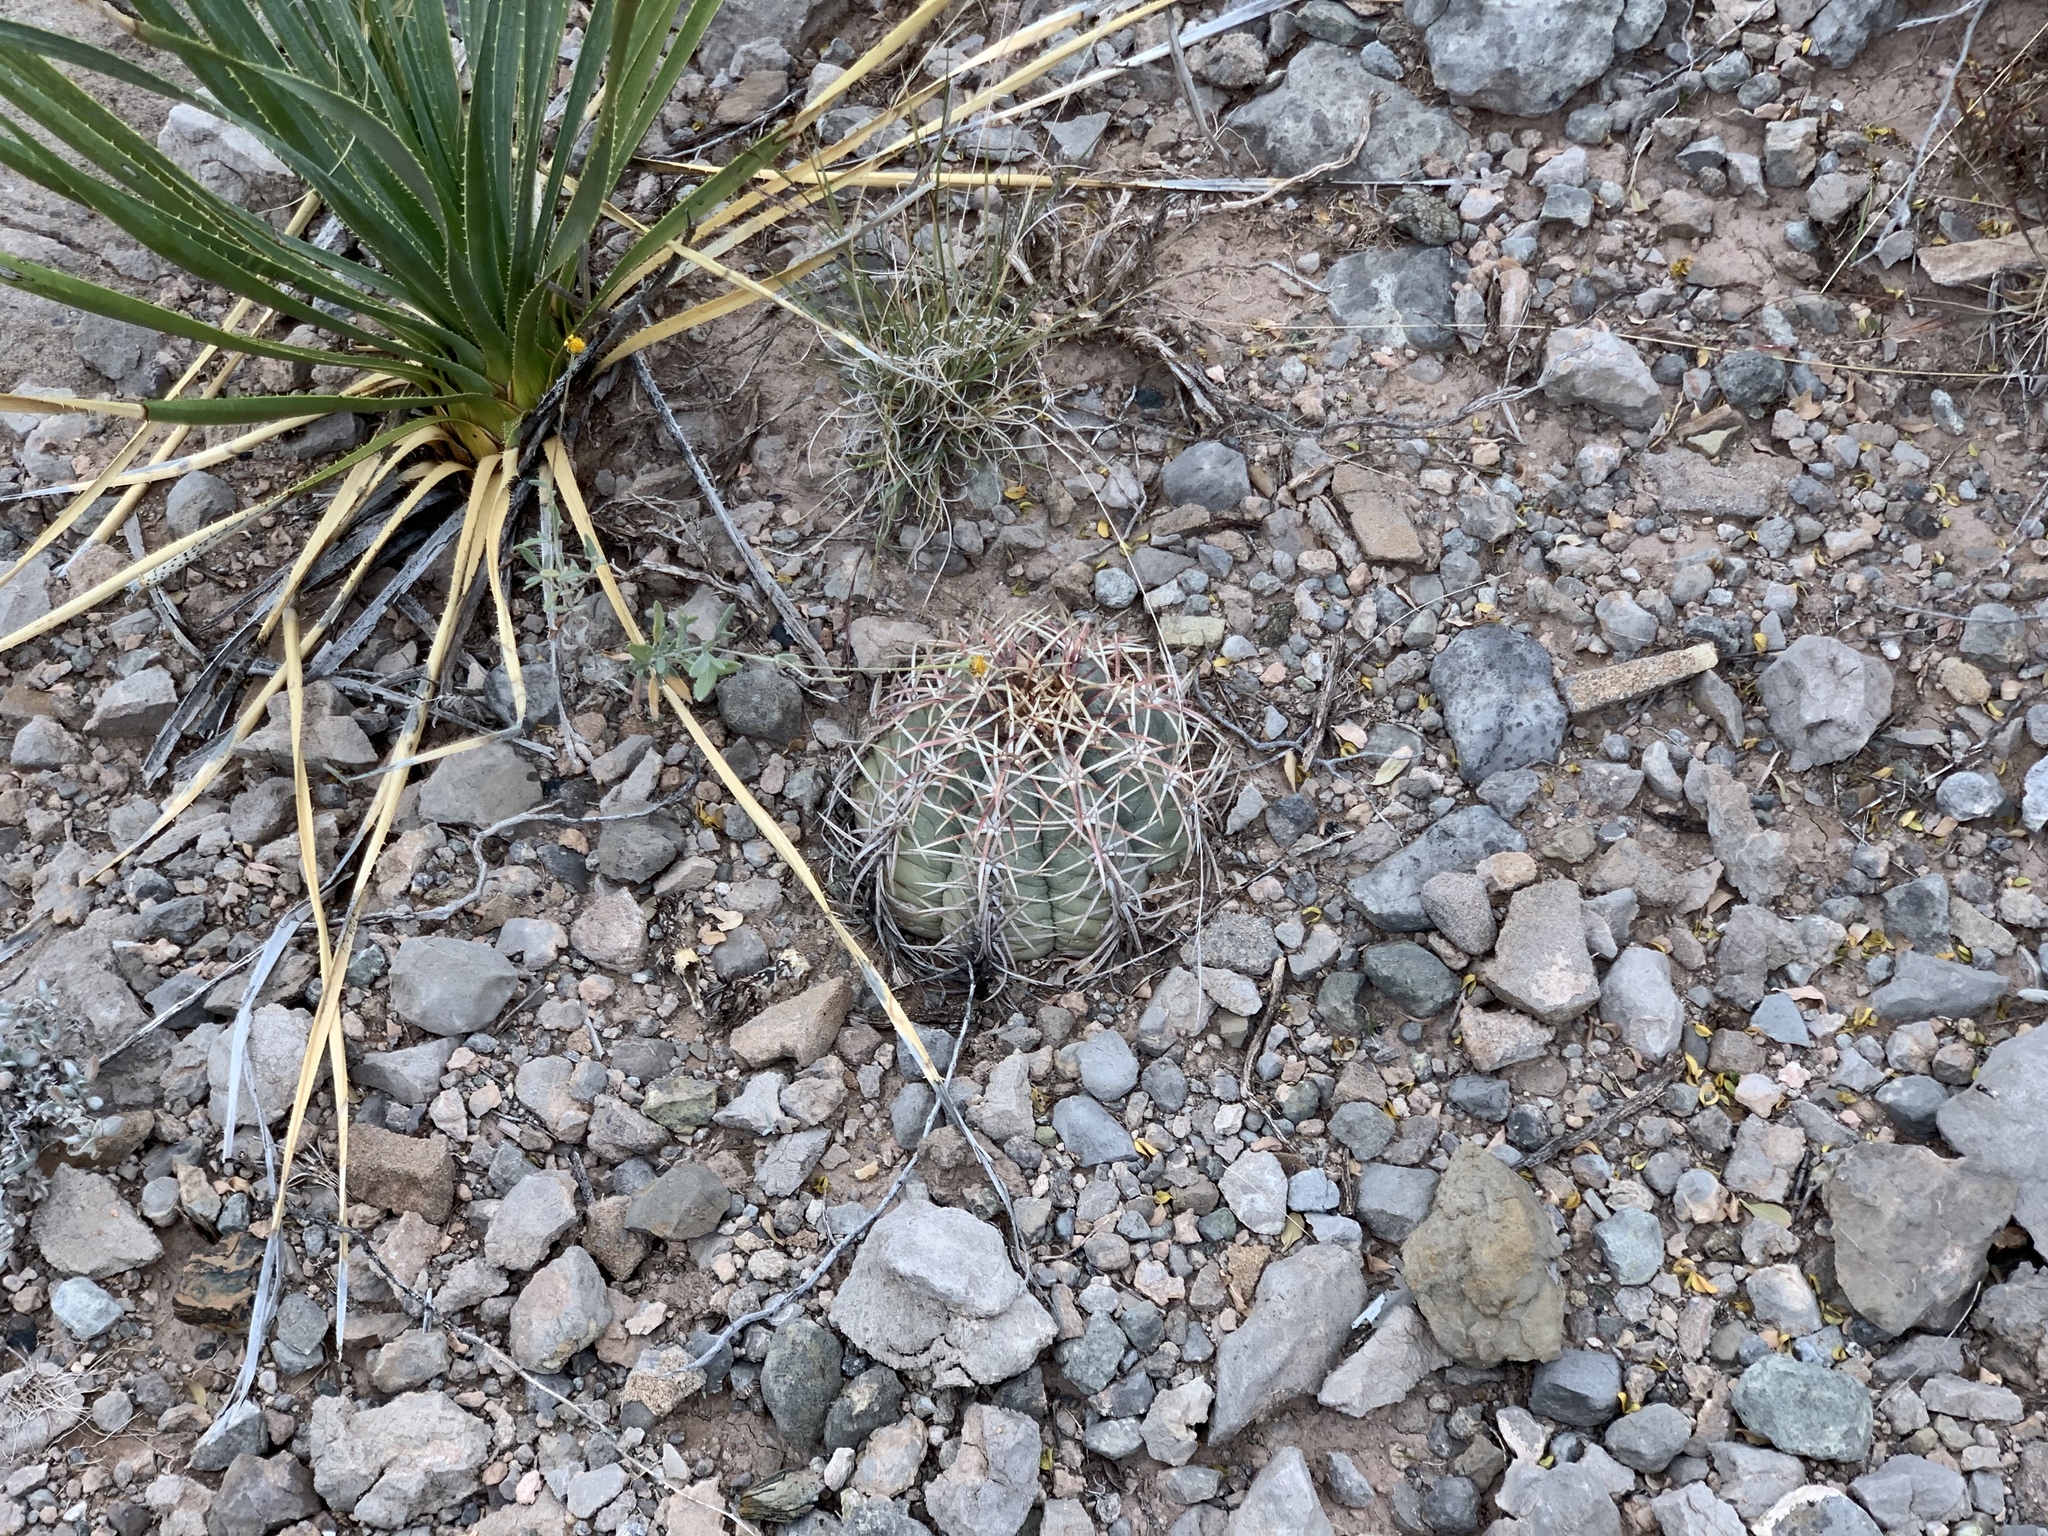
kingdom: Plantae
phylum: Tracheophyta
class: Magnoliopsida
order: Caryophyllales
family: Cactaceae
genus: Echinocactus
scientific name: Echinocactus horizonthalonius
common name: Devilshead
